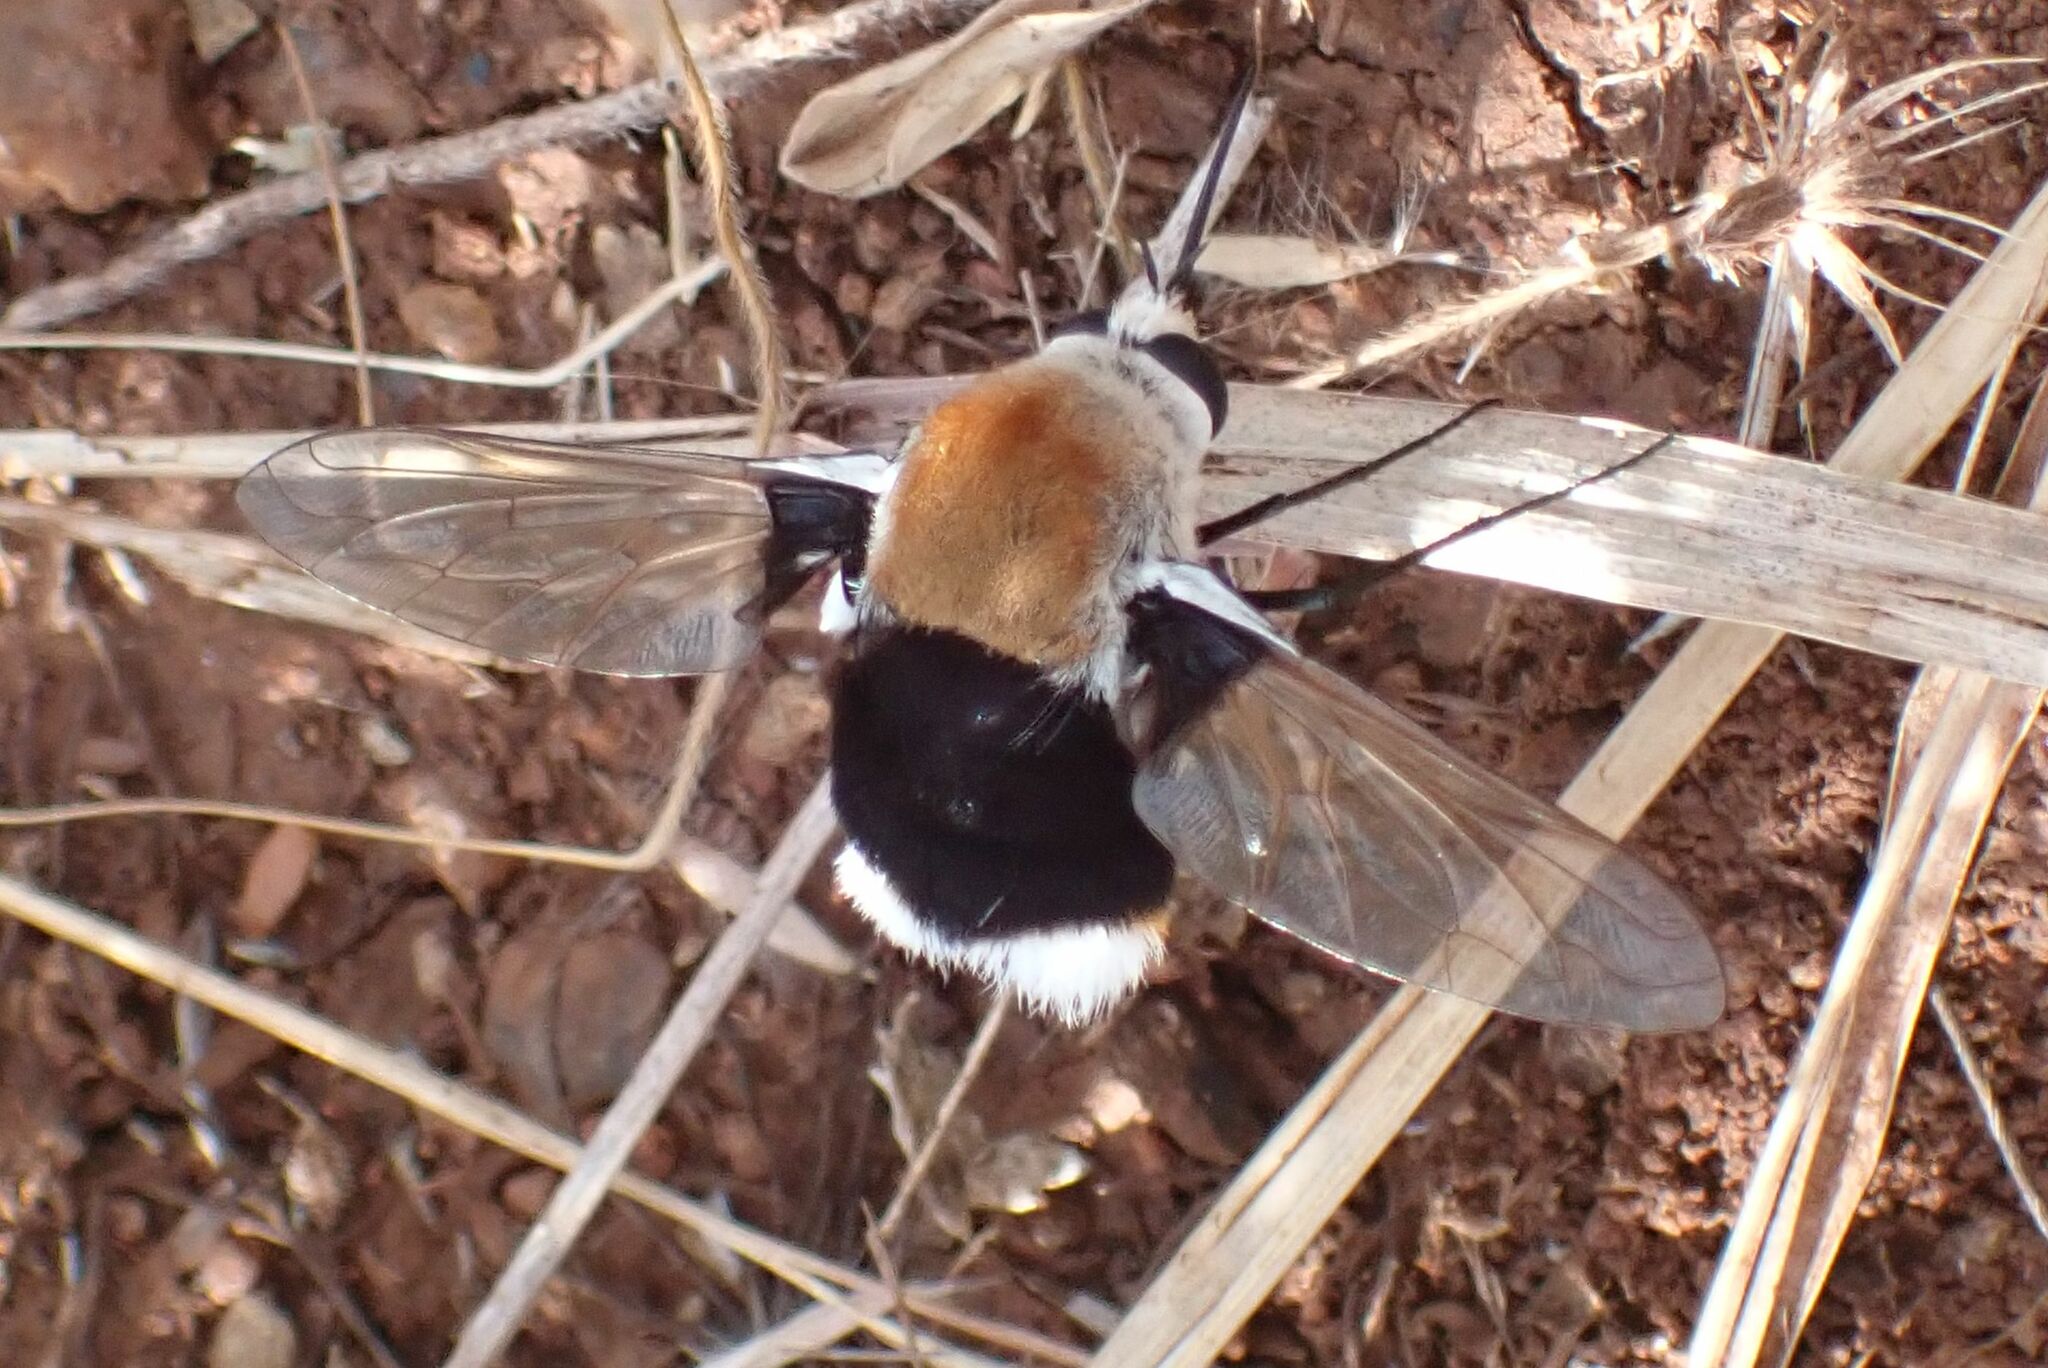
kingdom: Animalia
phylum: Arthropoda
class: Insecta
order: Diptera
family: Bombyliidae
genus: Bombomyia
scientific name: Bombomyia discoidea
